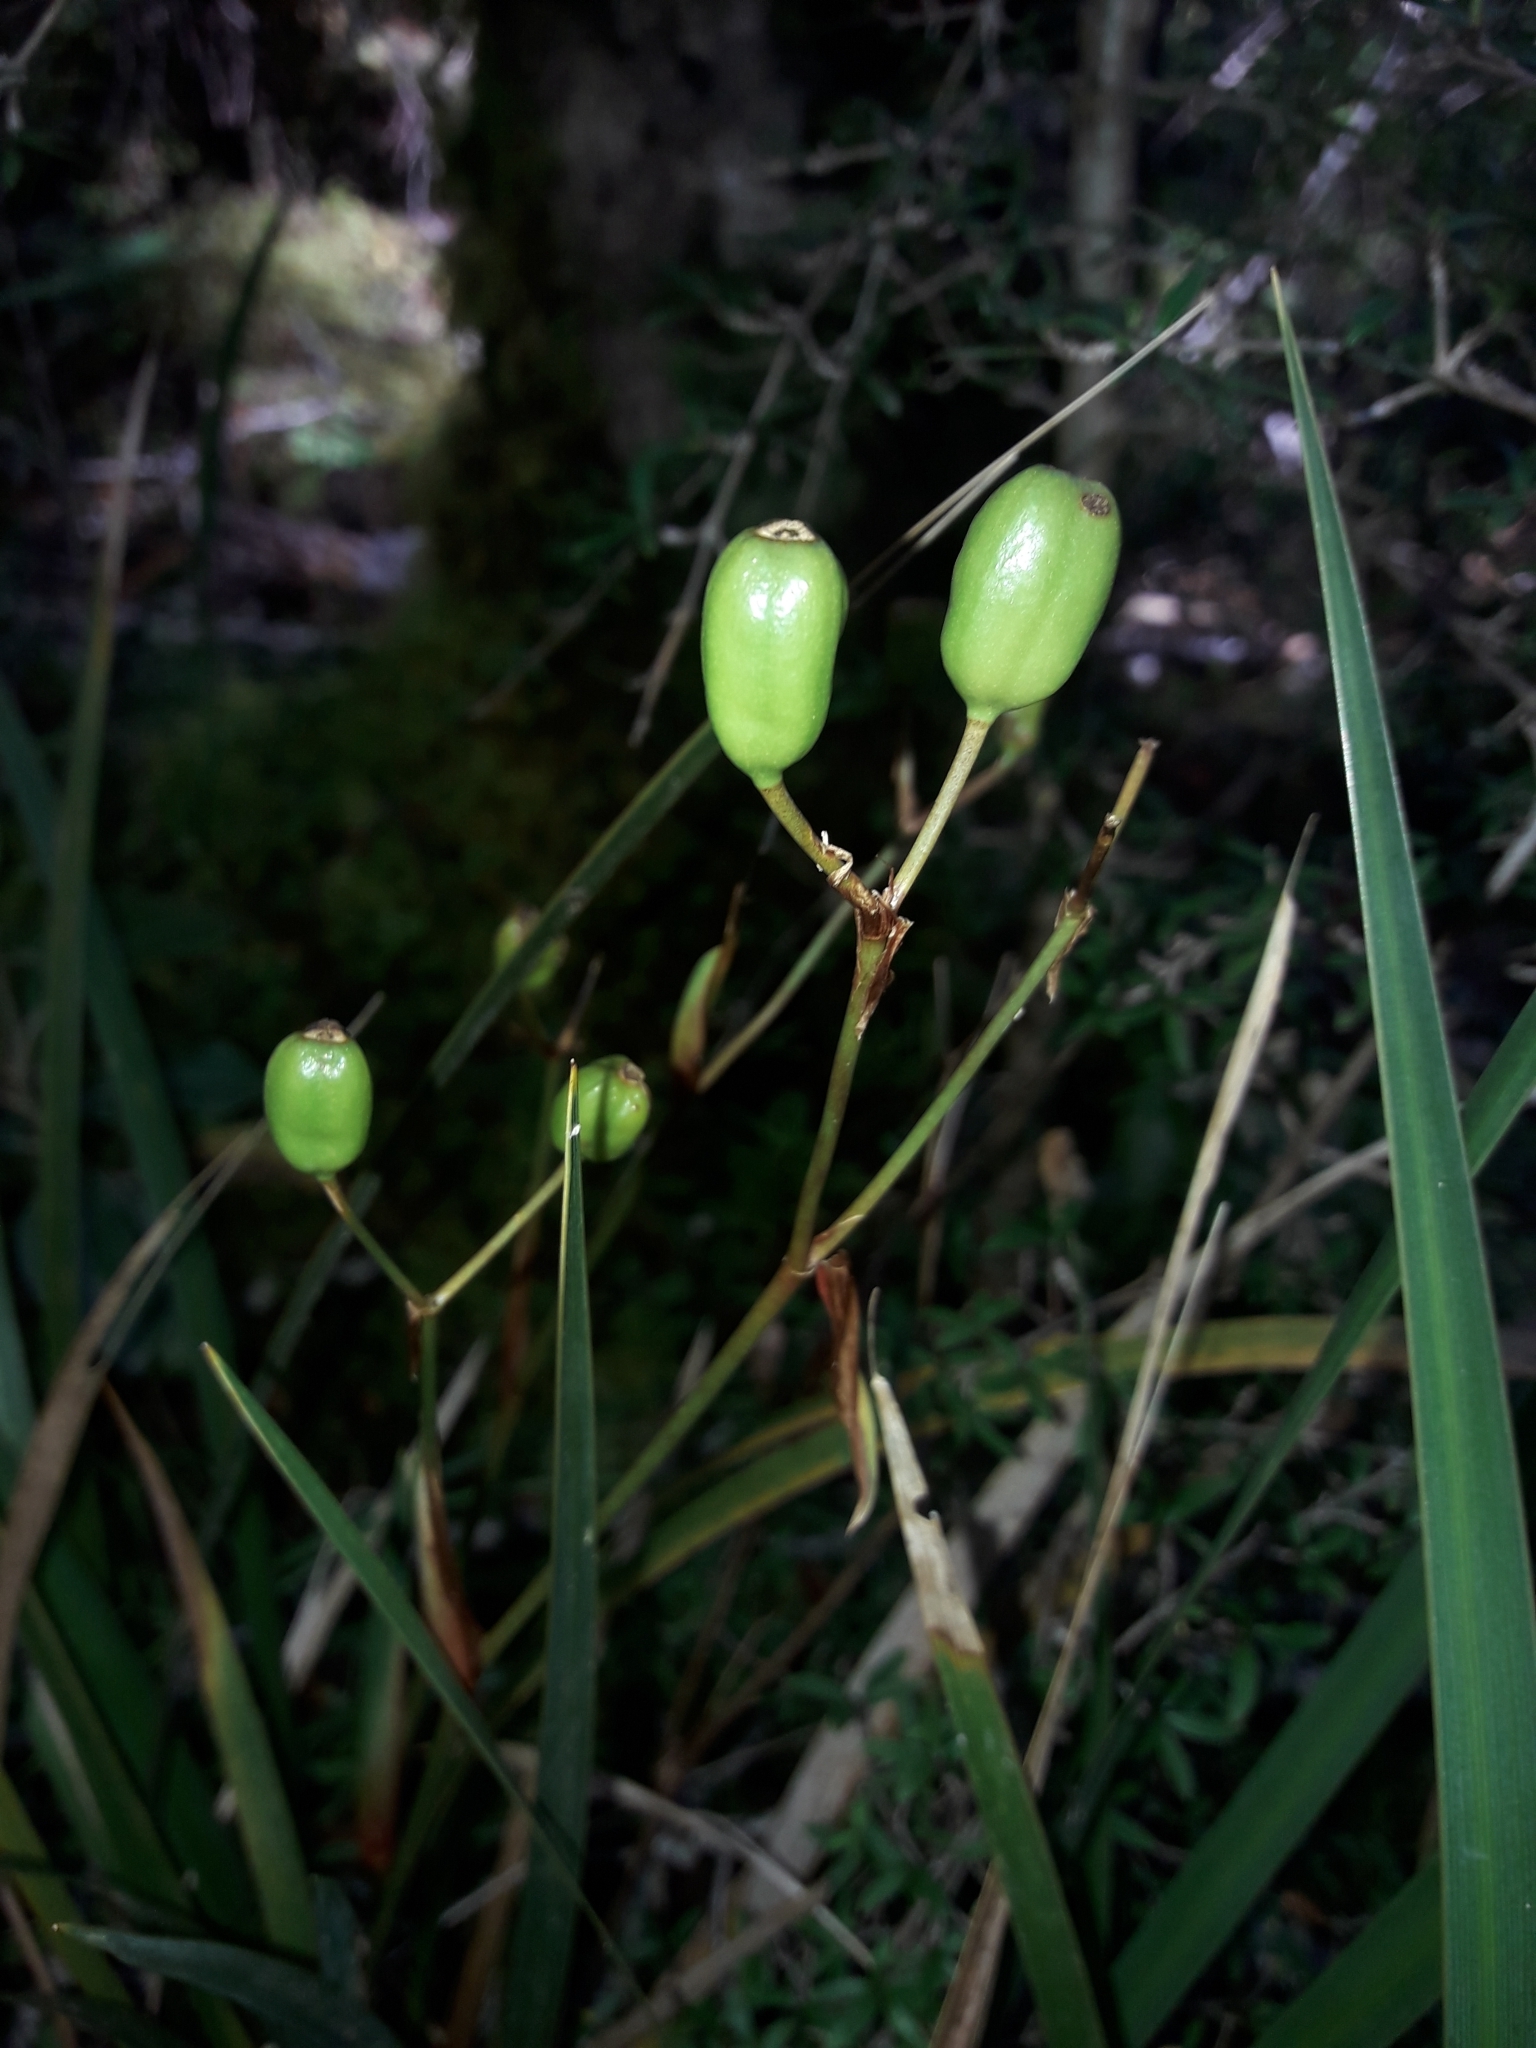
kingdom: Plantae
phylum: Tracheophyta
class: Liliopsida
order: Asparagales
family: Iridaceae
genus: Libertia
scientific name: Libertia ixioides
